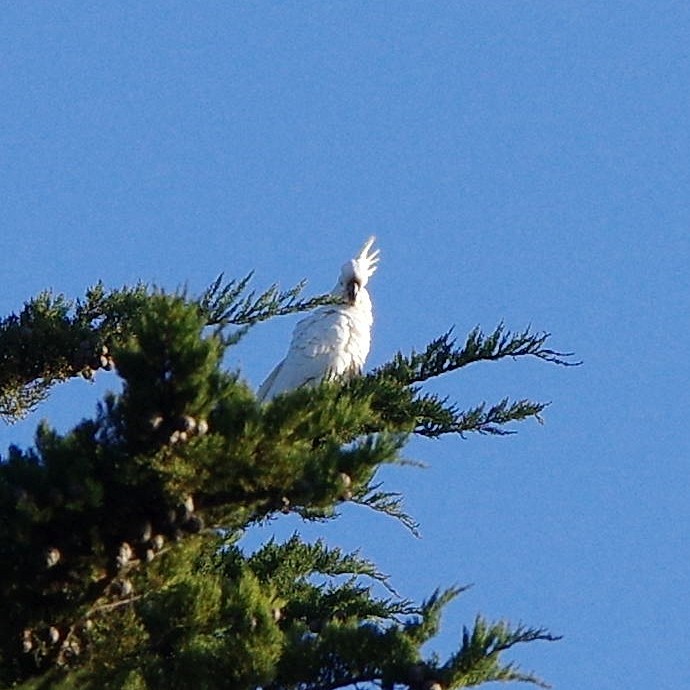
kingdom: Animalia
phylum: Chordata
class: Aves
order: Psittaciformes
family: Psittacidae
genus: Cacatua
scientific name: Cacatua galerita
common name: Sulphur-crested cockatoo
